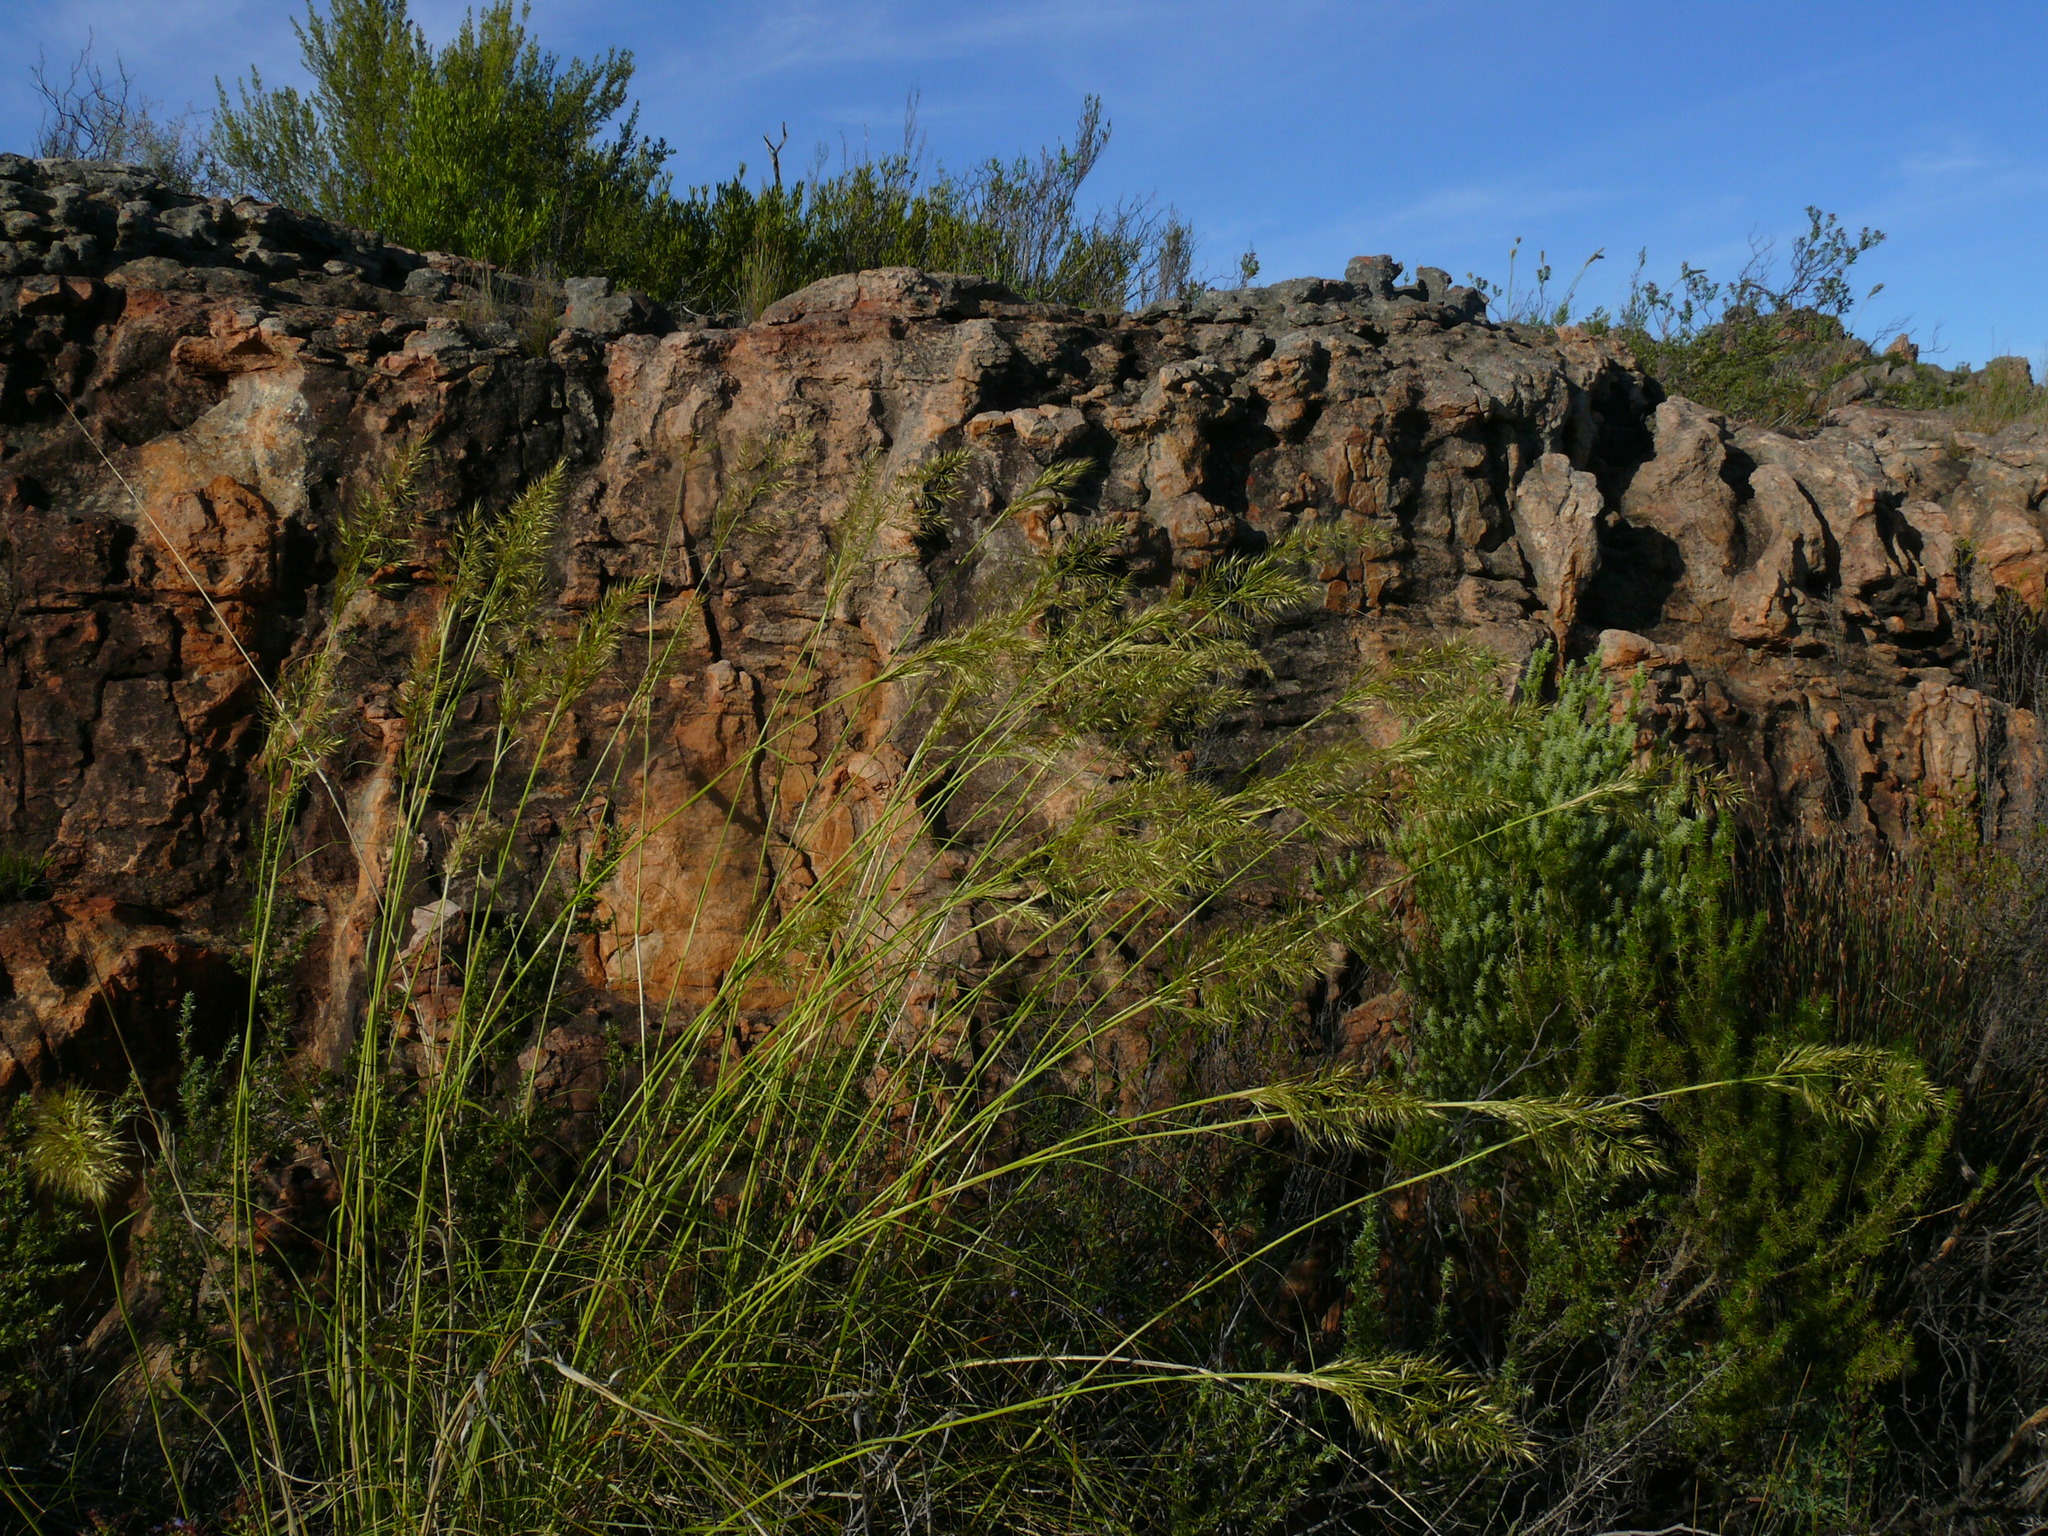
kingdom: Plantae
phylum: Tracheophyta
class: Liliopsida
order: Poales
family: Poaceae
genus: Capeochloa
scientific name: Capeochloa arundinacea
